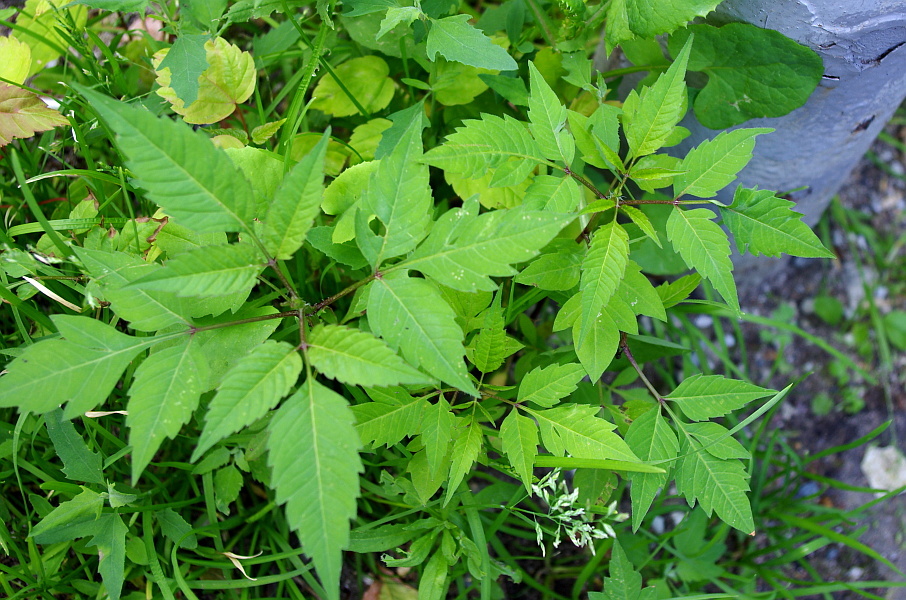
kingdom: Plantae
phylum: Tracheophyta
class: Magnoliopsida
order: Asterales
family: Asteraceae
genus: Bidens
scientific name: Bidens frondosa
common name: Beggarticks
